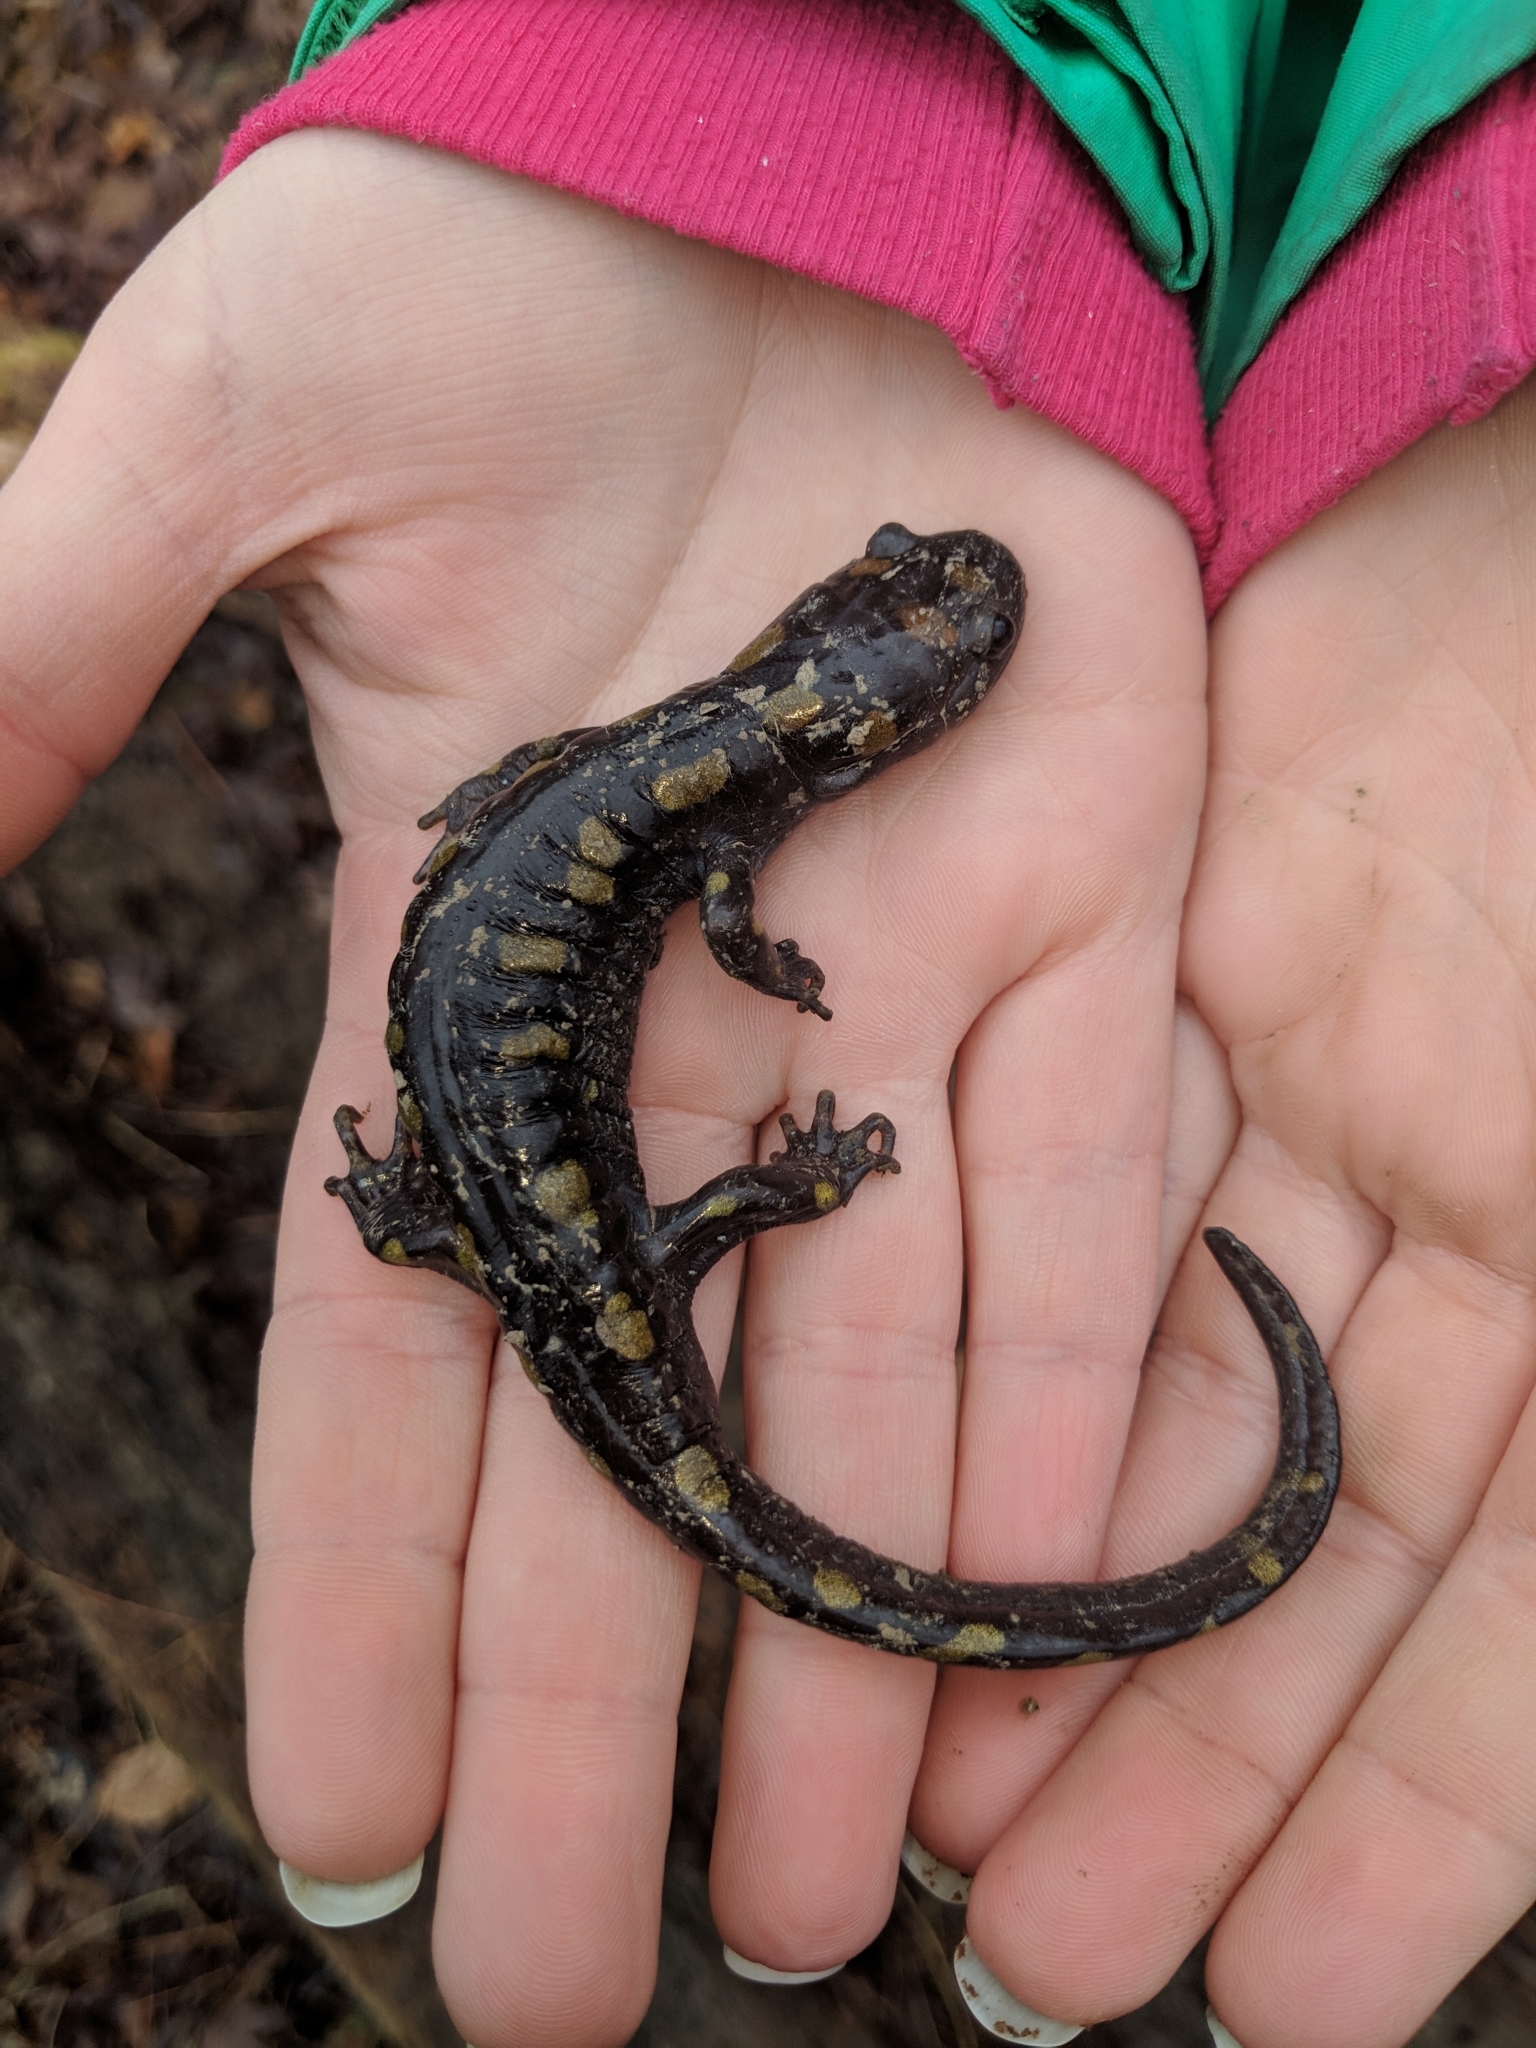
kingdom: Animalia
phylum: Chordata
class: Amphibia
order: Caudata
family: Ambystomatidae
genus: Ambystoma
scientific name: Ambystoma maculatum
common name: Spotted salamander
